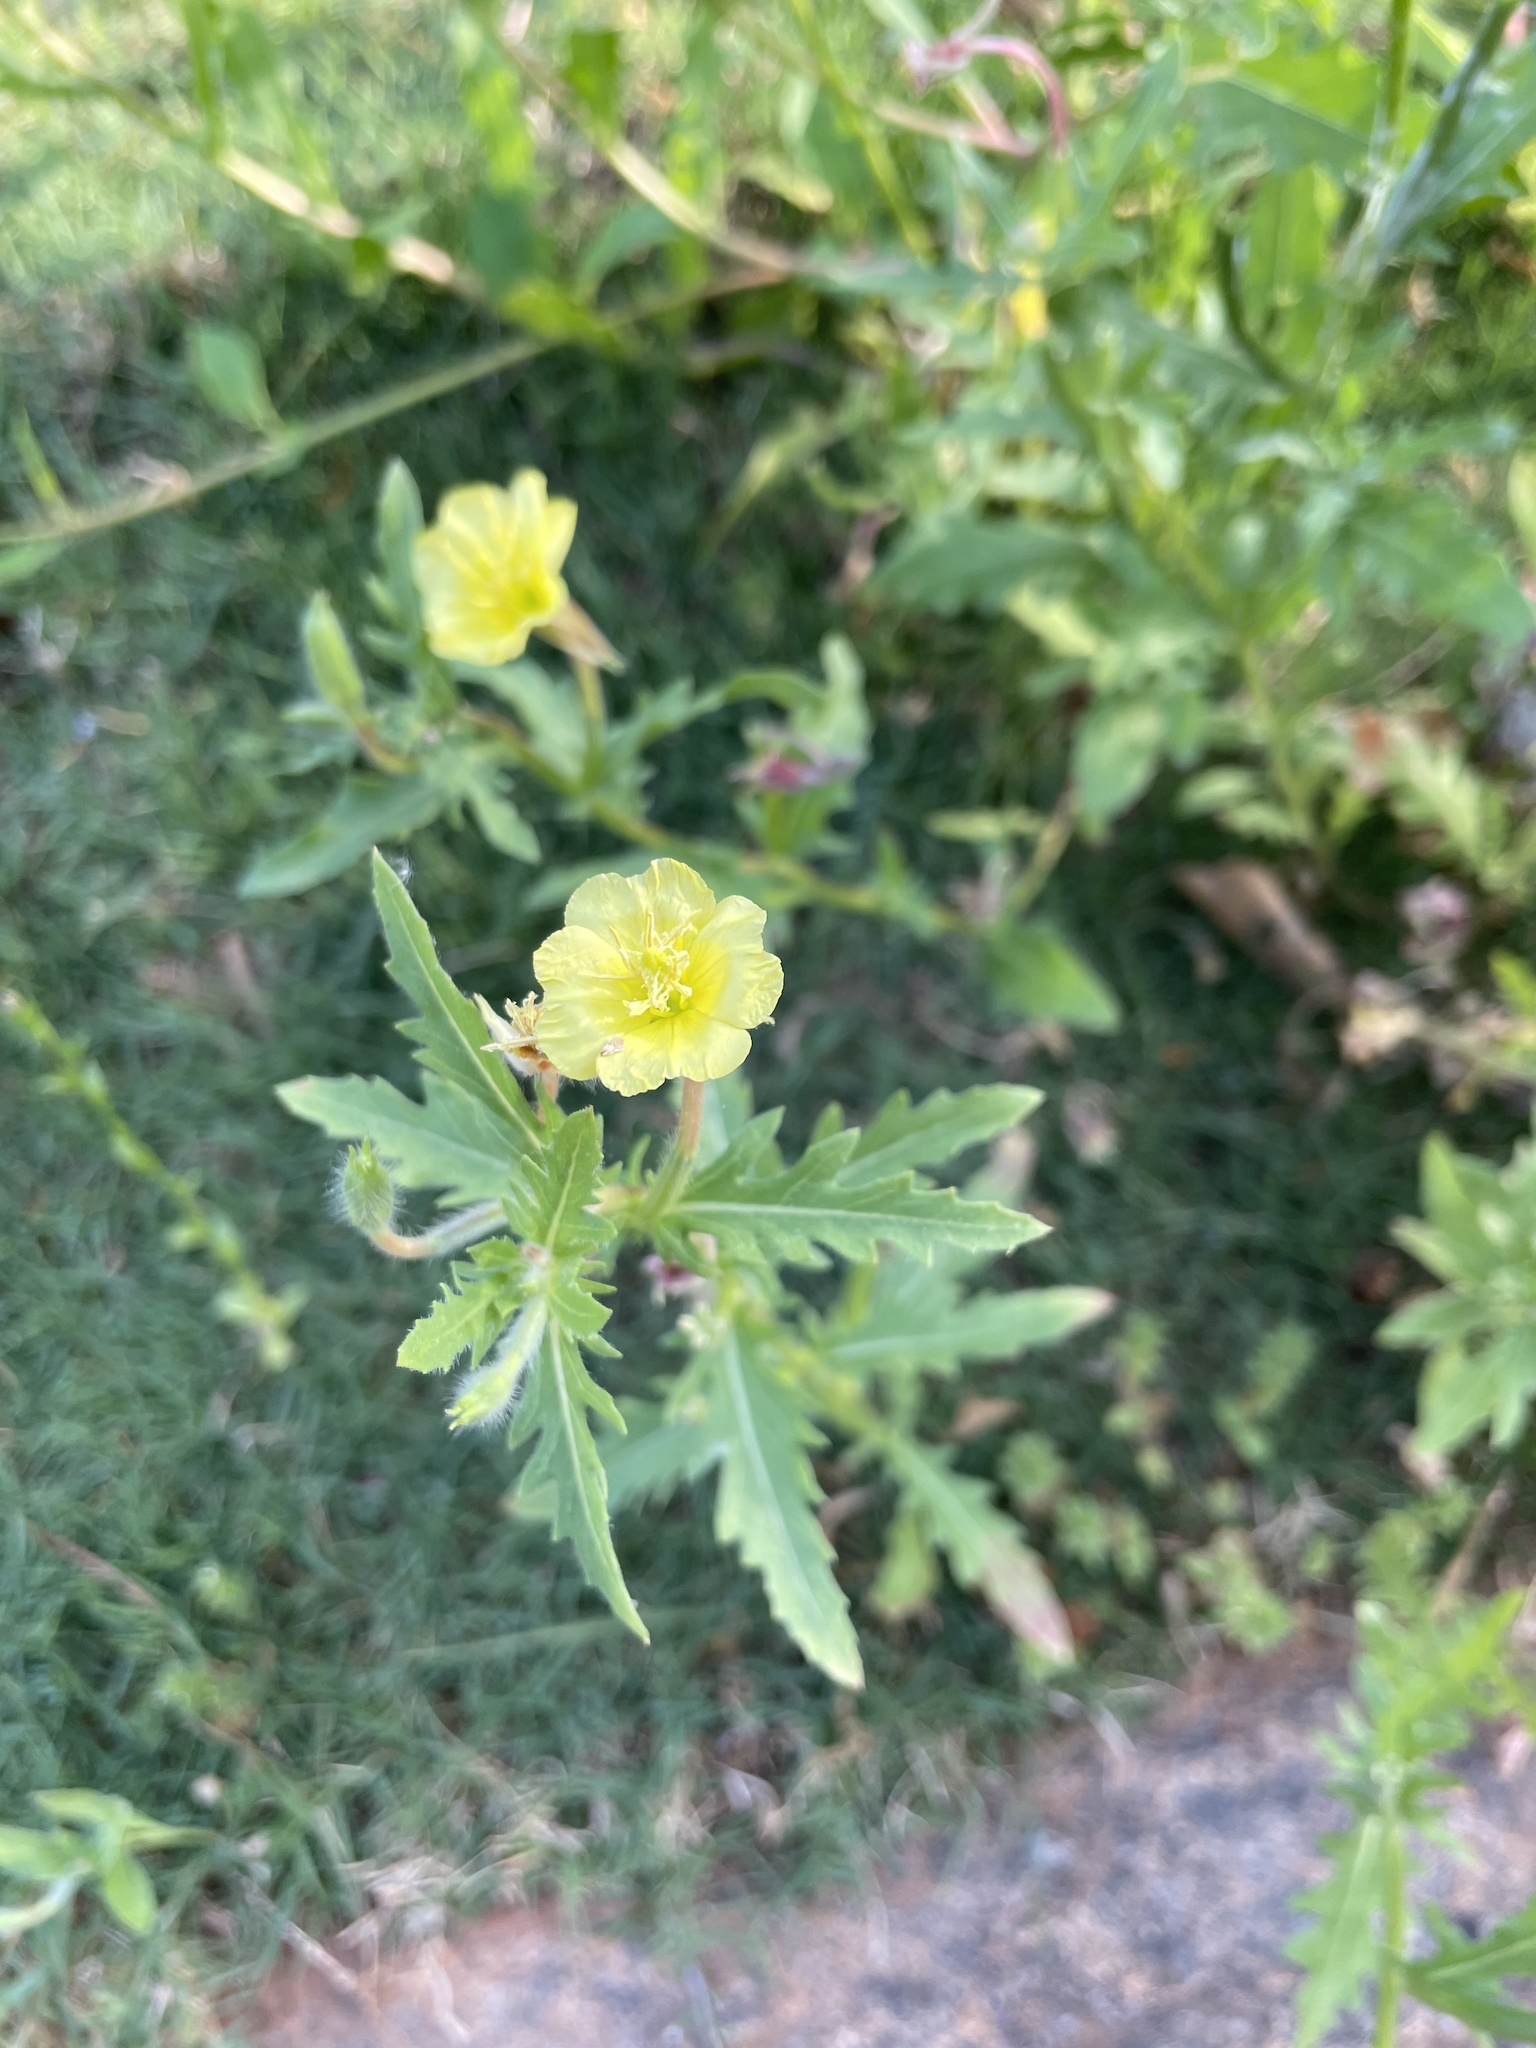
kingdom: Plantae
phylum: Tracheophyta
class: Magnoliopsida
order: Myrtales
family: Onagraceae
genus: Oenothera
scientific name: Oenothera laciniata
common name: Cut-leaved evening-primrose
